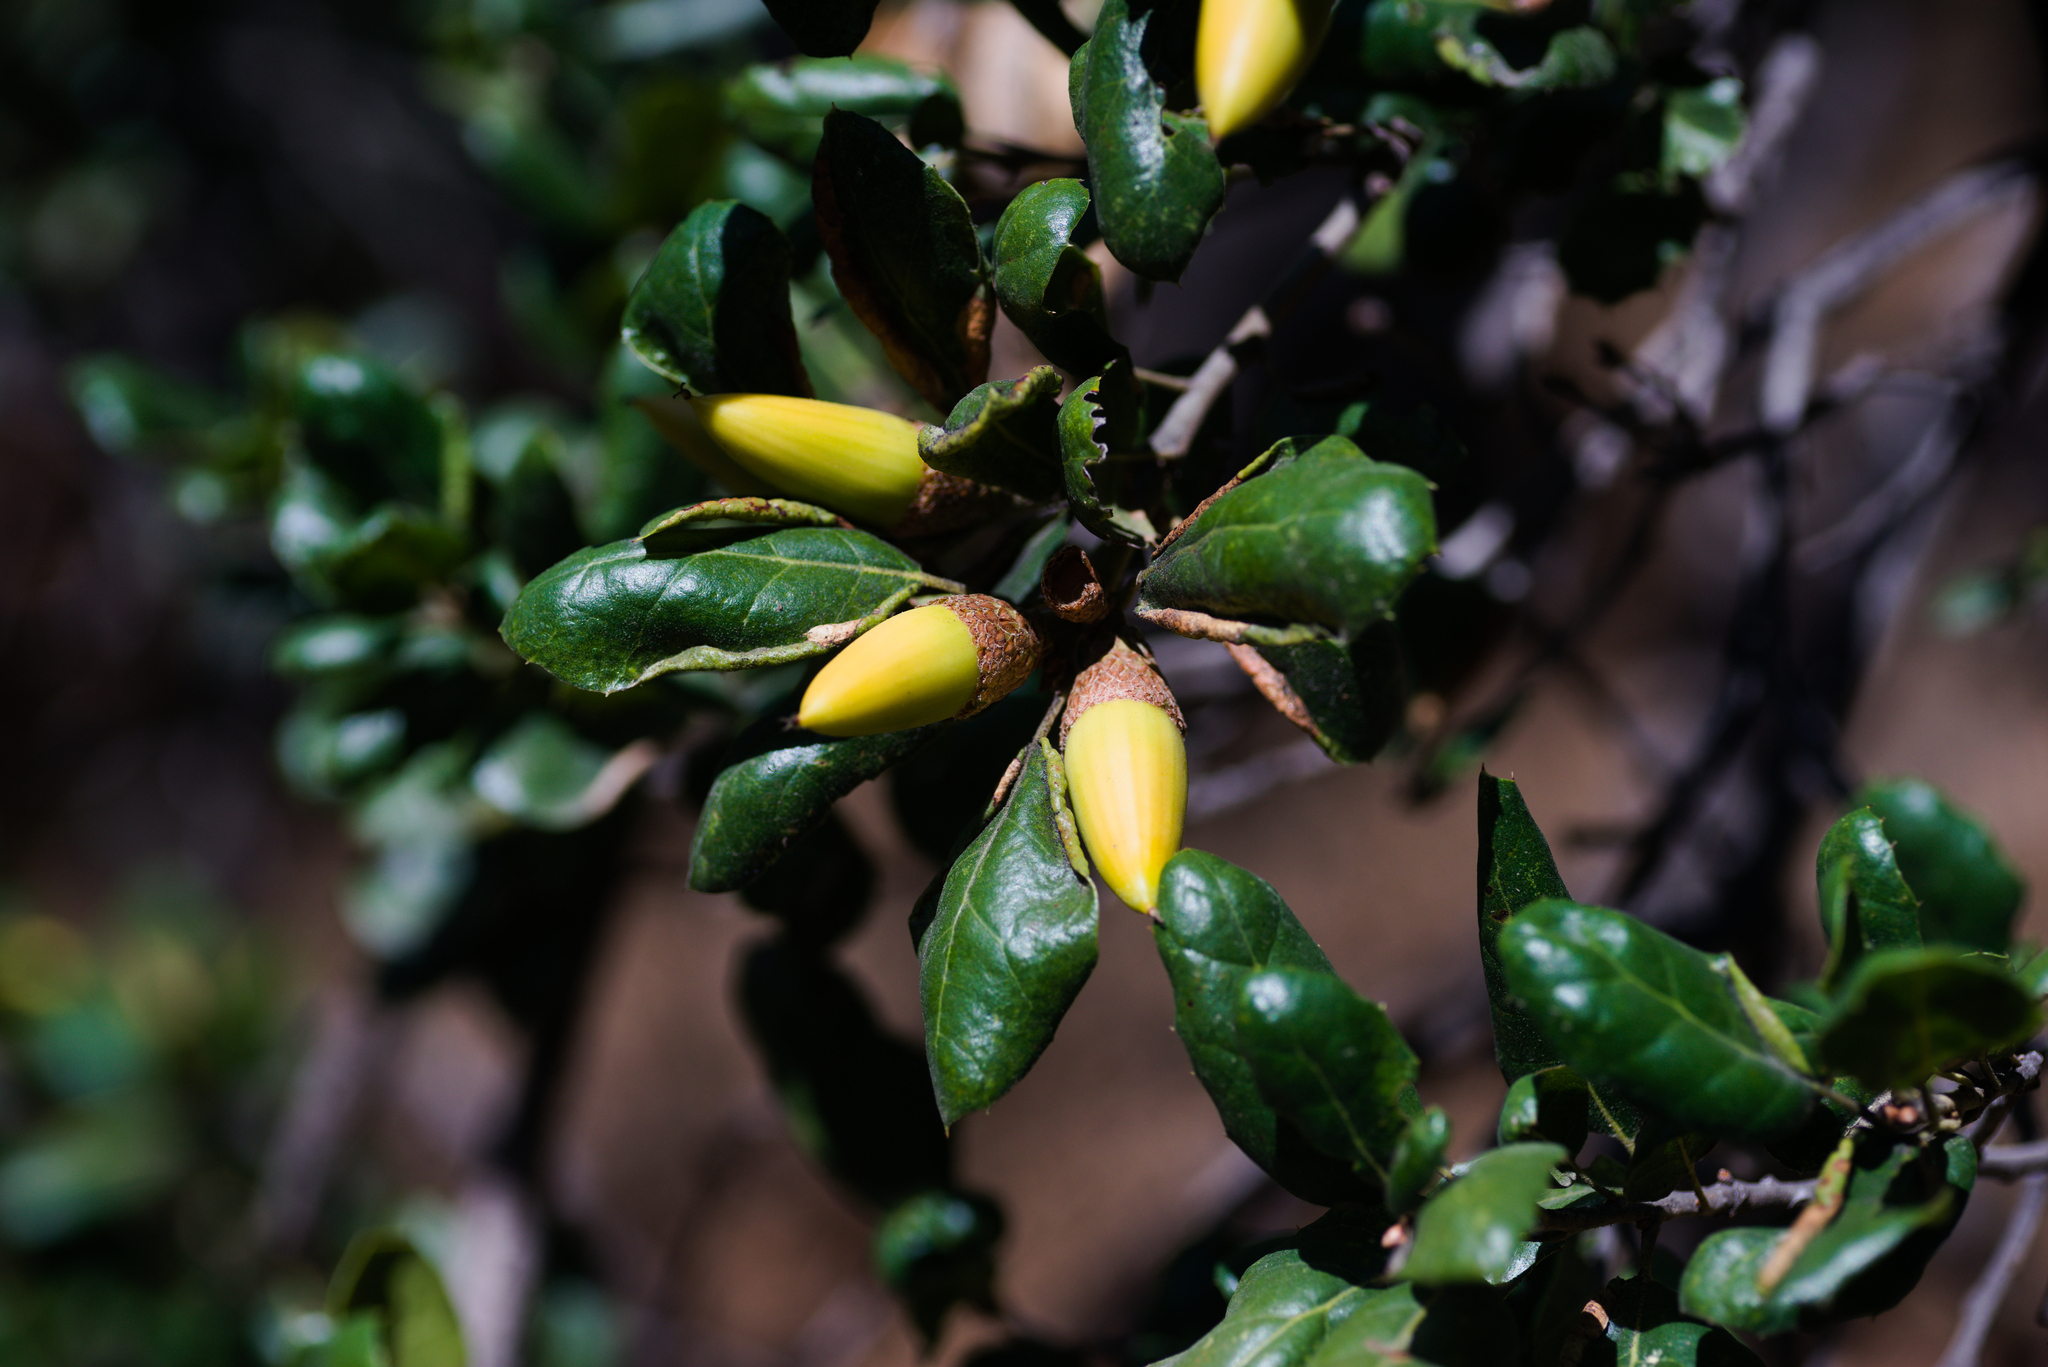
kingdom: Plantae
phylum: Tracheophyta
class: Magnoliopsida
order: Fagales
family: Fagaceae
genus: Quercus
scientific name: Quercus agrifolia
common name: California live oak
